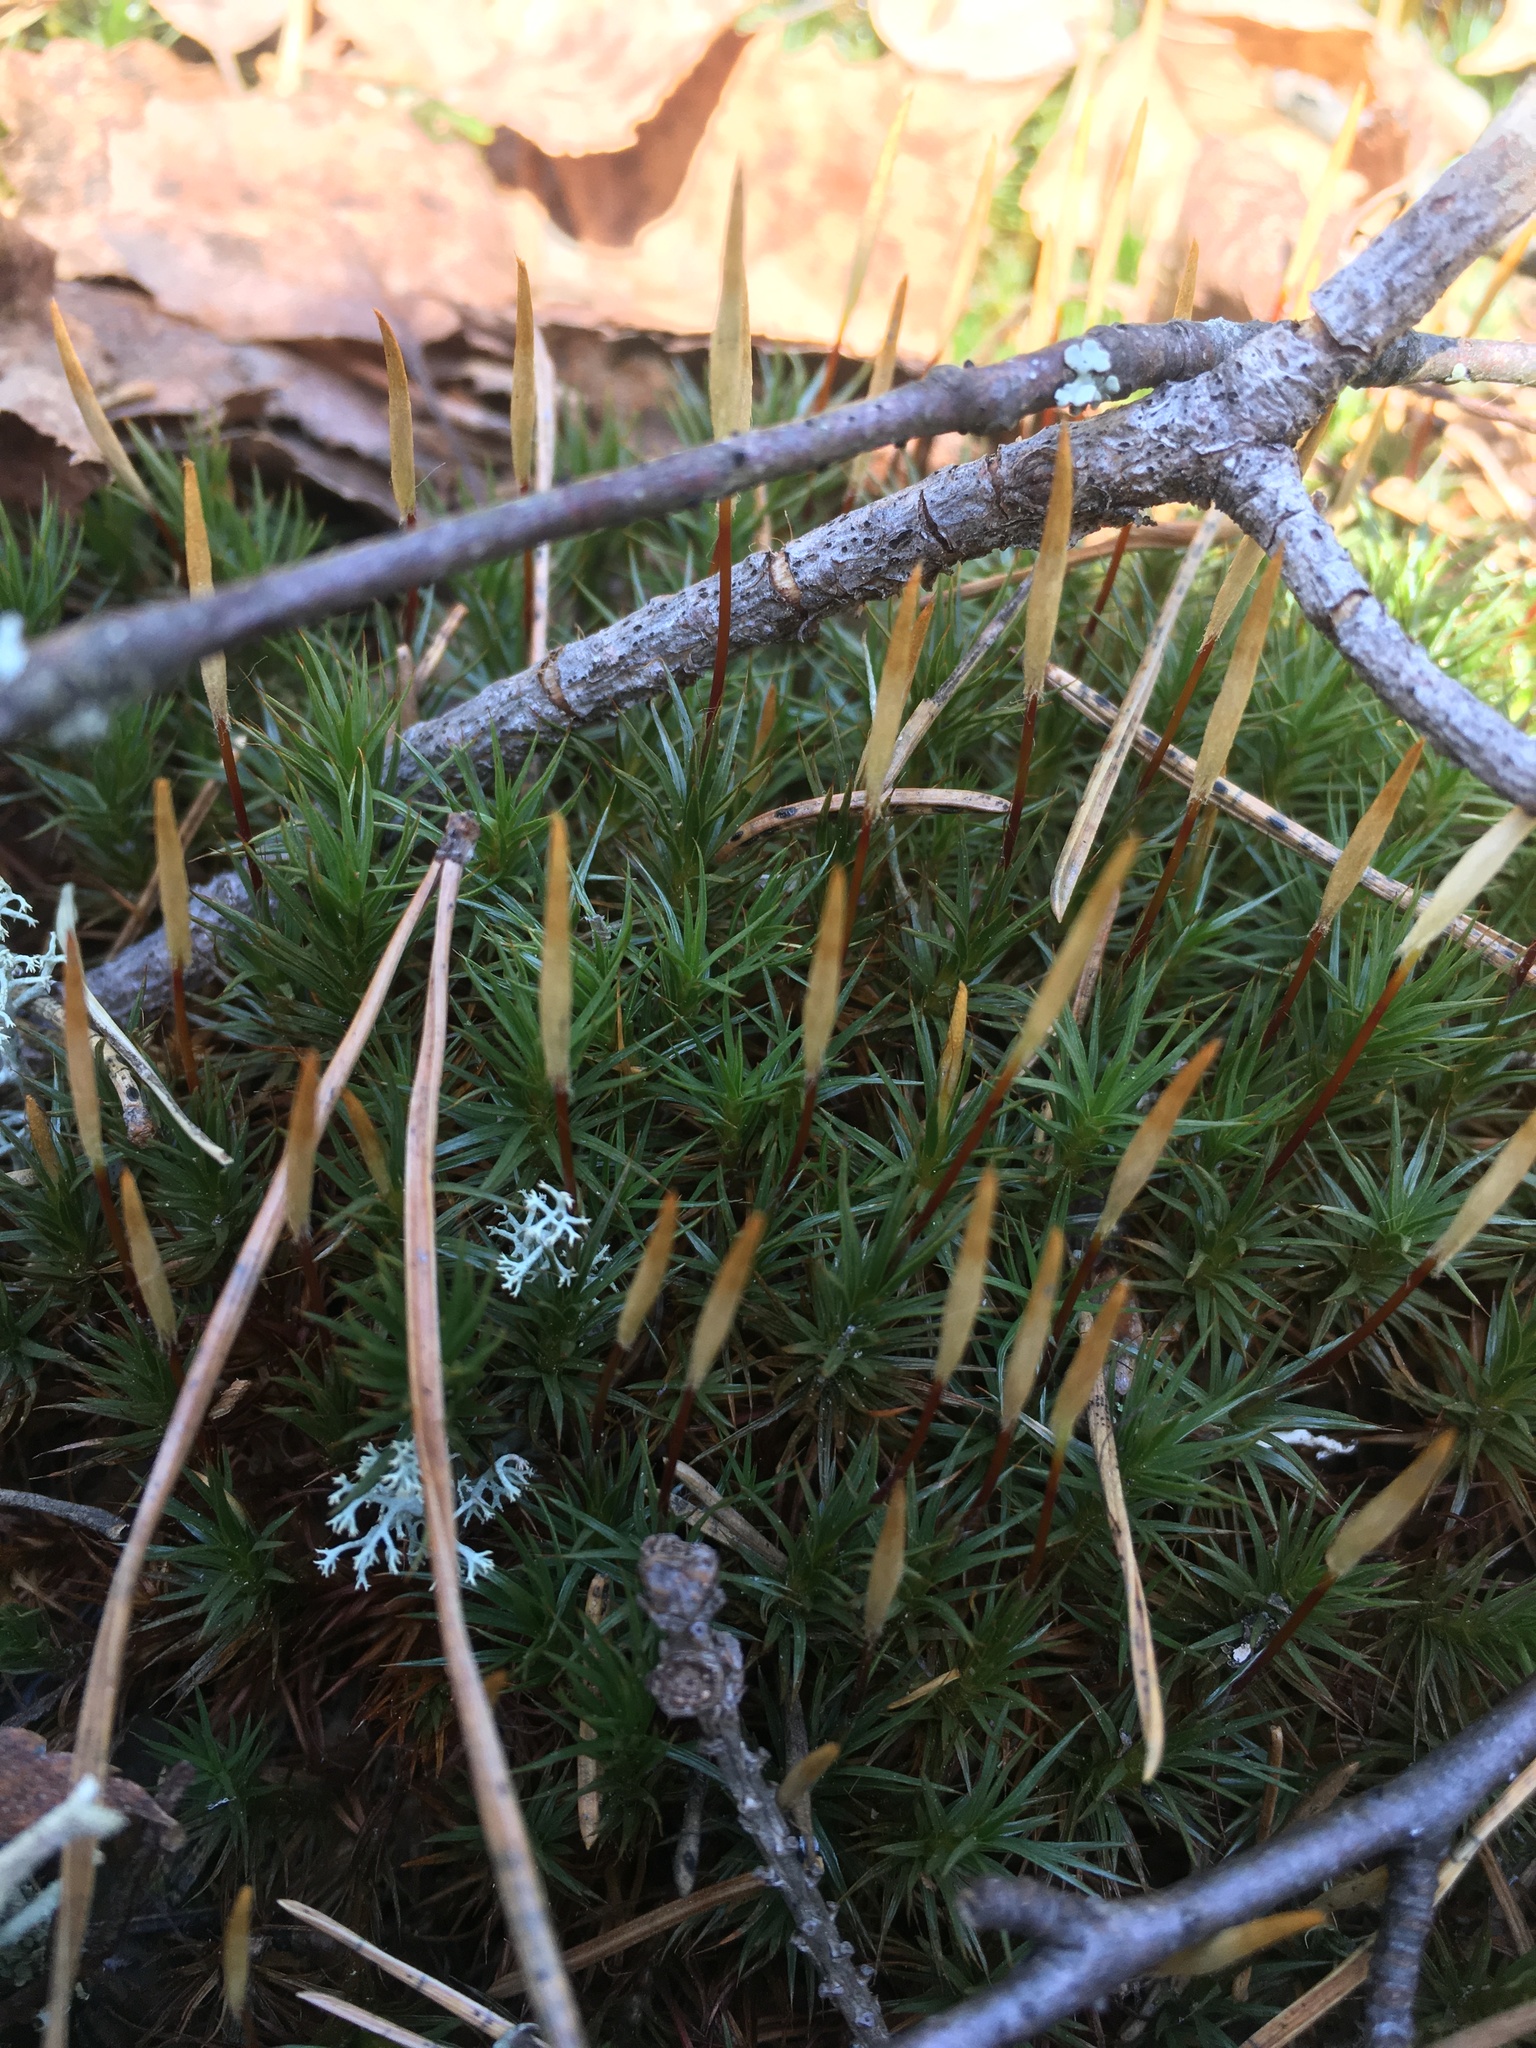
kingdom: Plantae
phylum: Bryophyta
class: Polytrichopsida
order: Polytrichales
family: Polytrichaceae
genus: Polytrichum
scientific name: Polytrichum formosum
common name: Bank haircap moss
